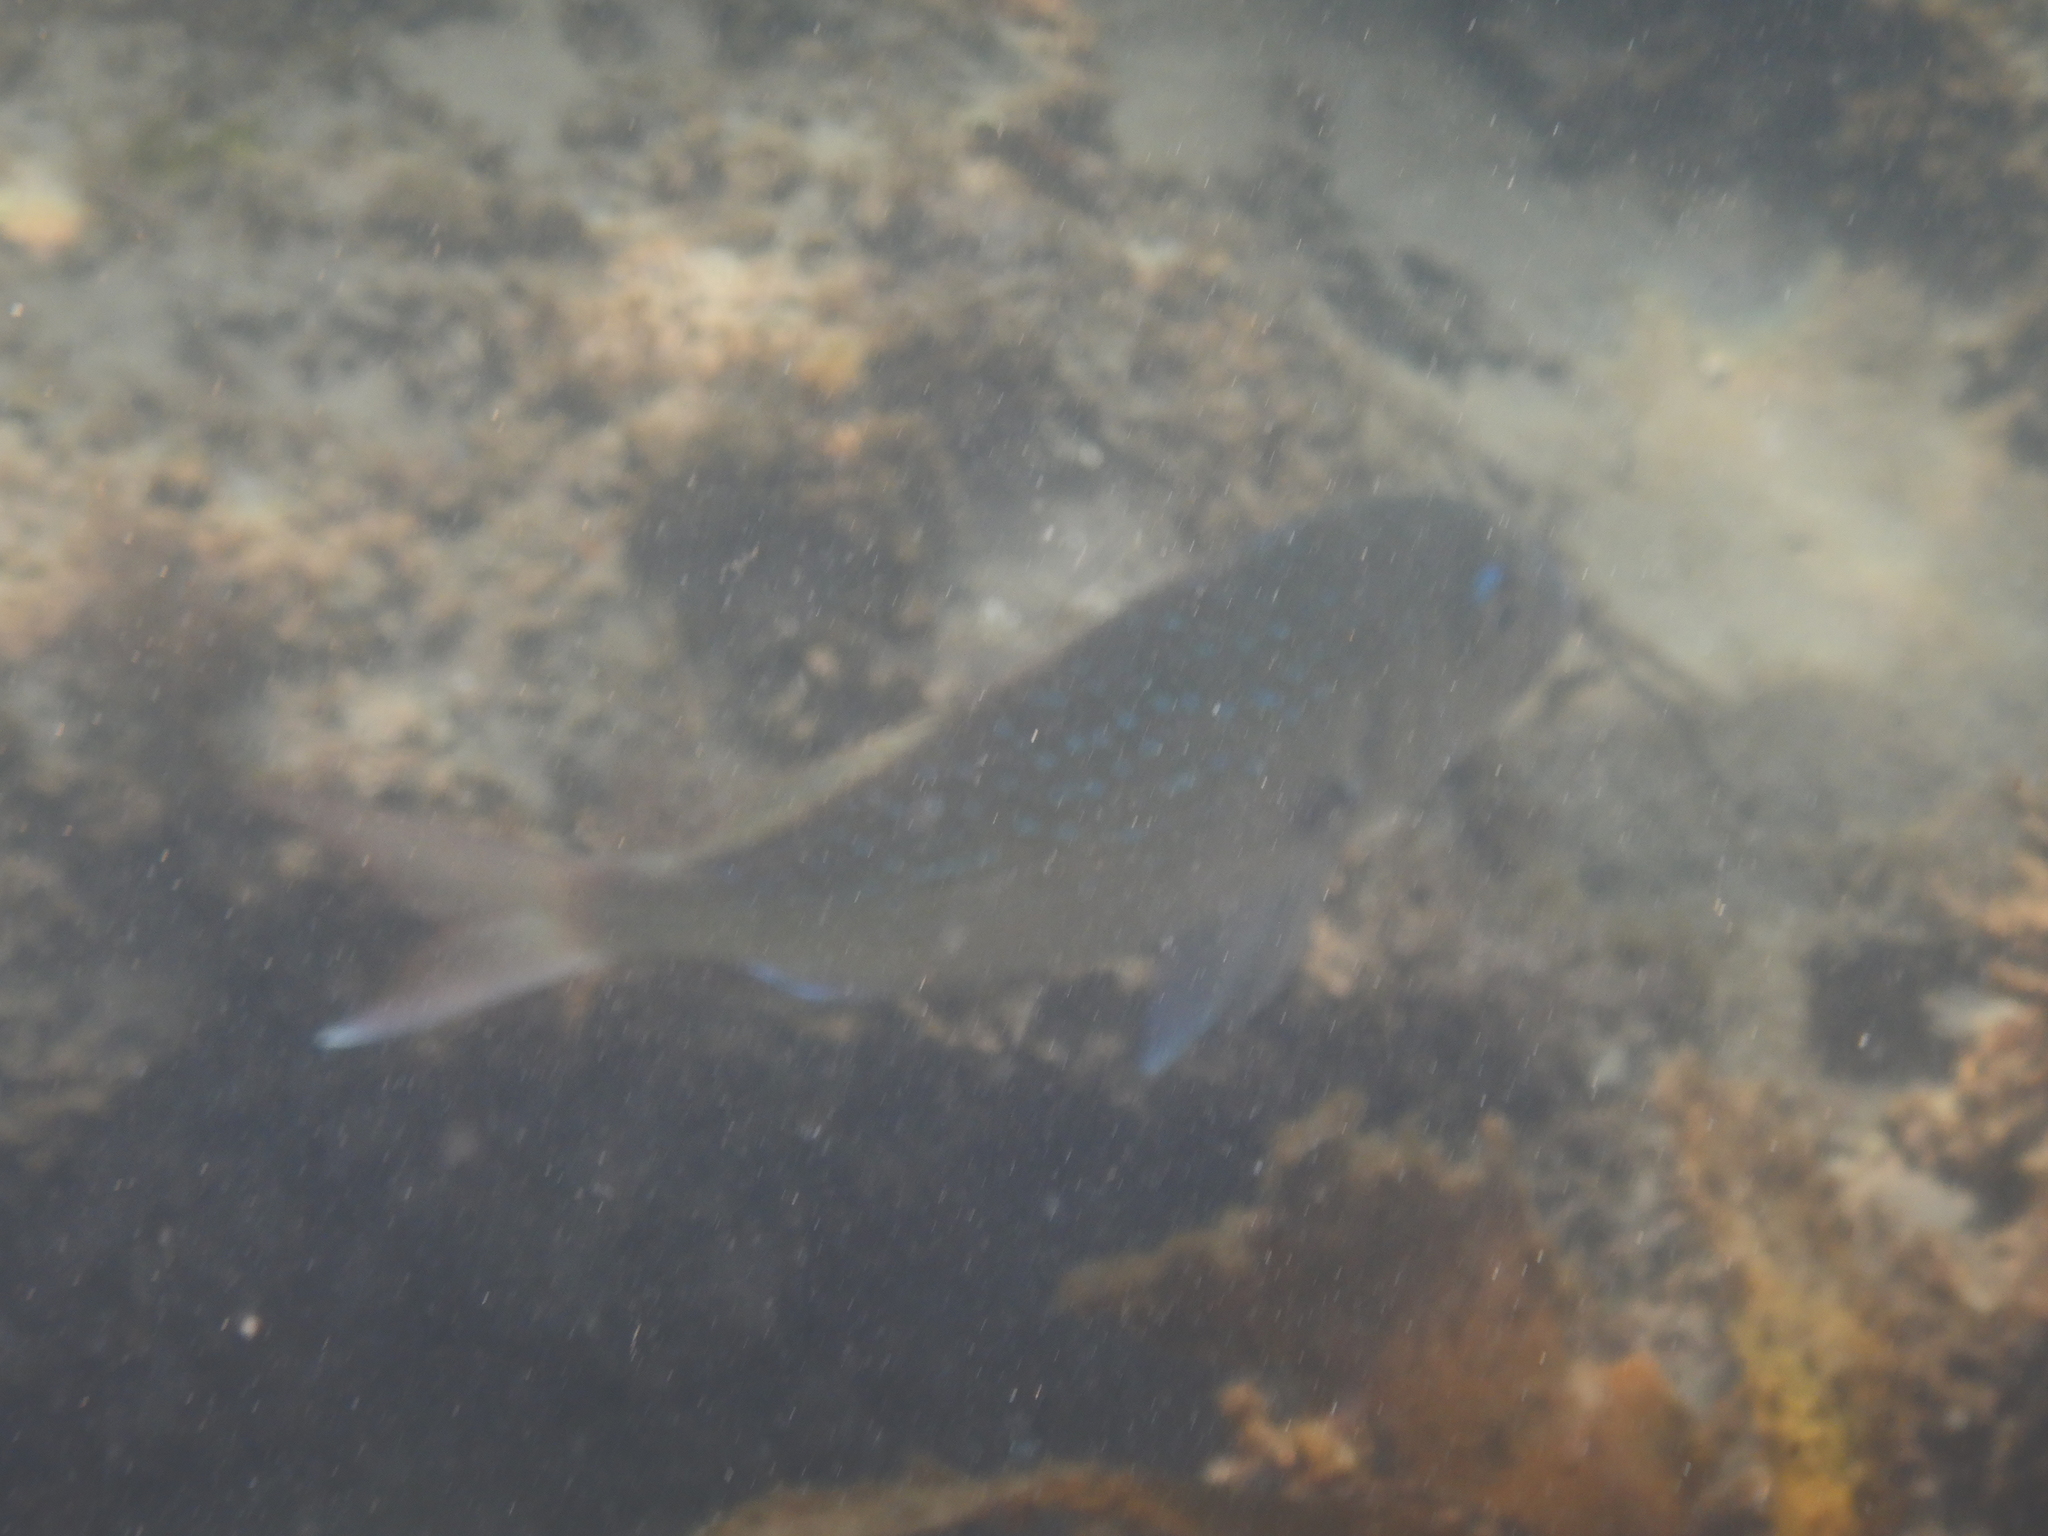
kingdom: Animalia
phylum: Chordata
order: Perciformes
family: Sparidae
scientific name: Sparidae
